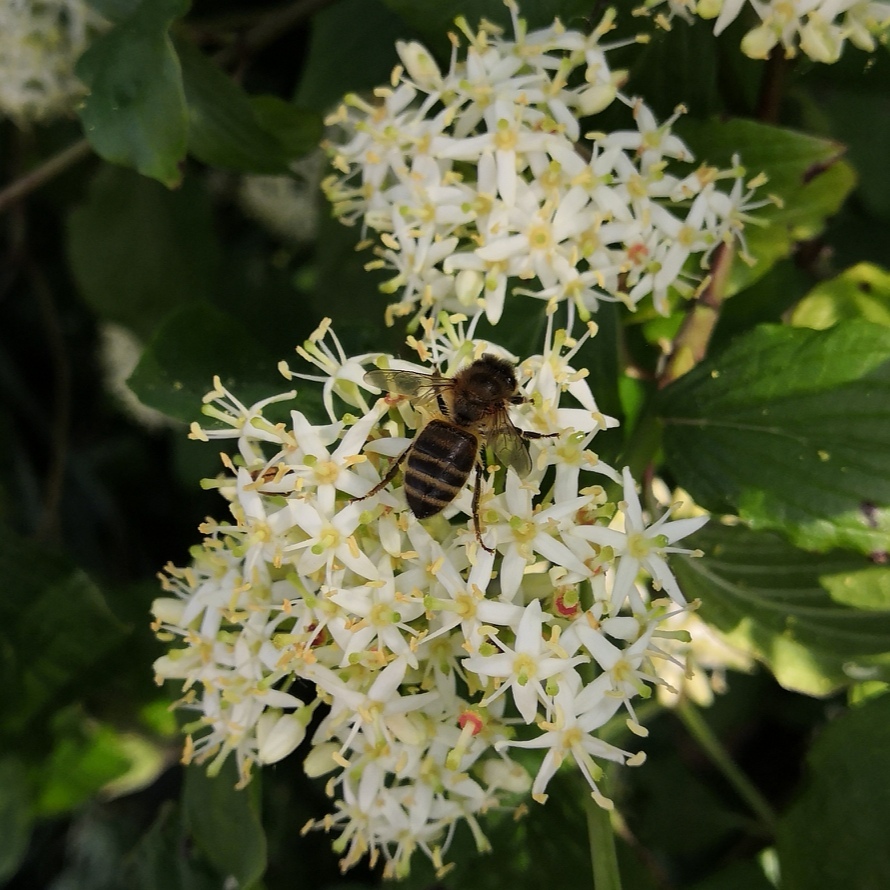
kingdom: Animalia
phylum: Arthropoda
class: Insecta
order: Hymenoptera
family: Apidae
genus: Apis
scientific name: Apis mellifera
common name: Honey bee
